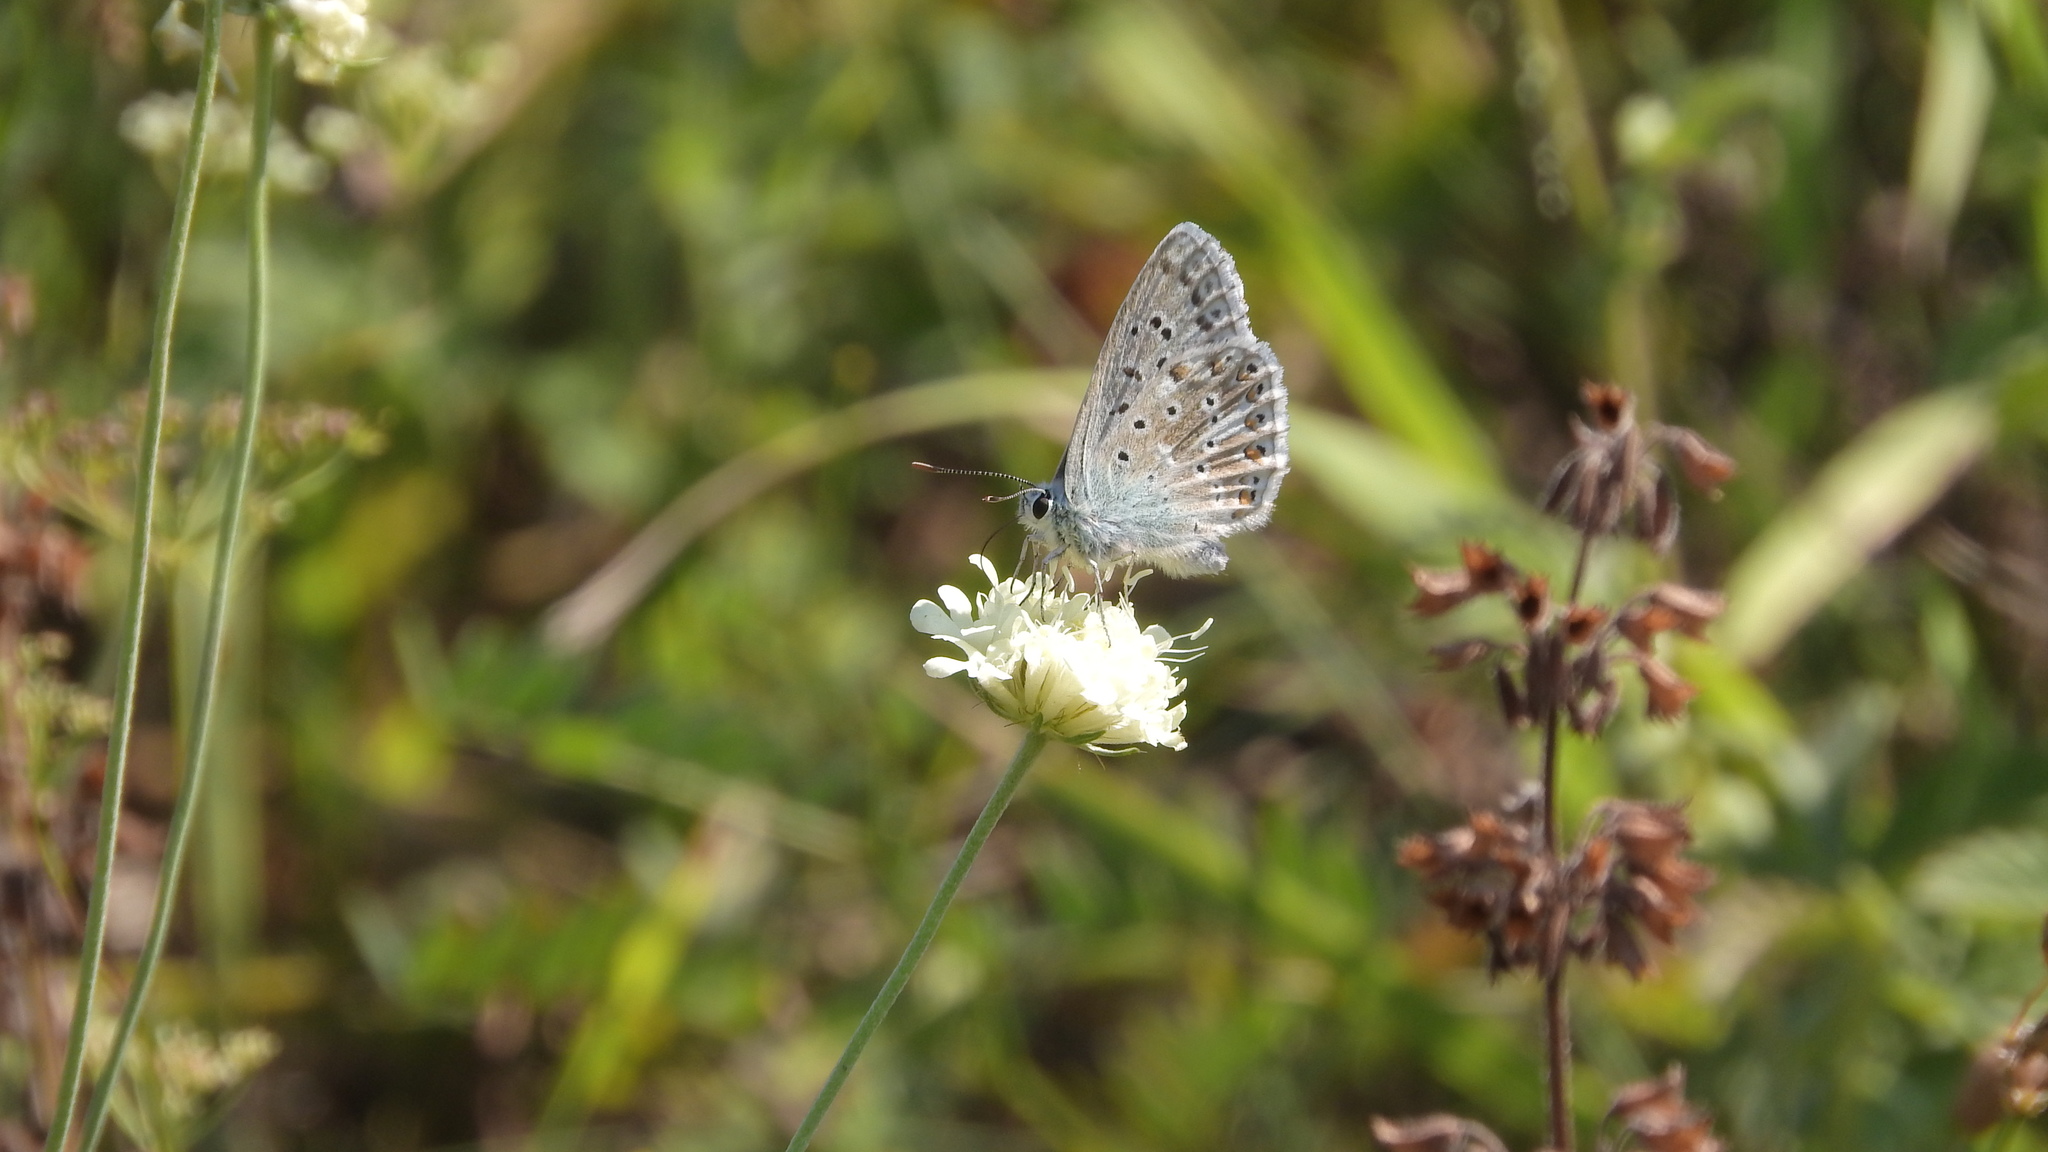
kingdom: Animalia
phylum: Arthropoda
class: Insecta
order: Lepidoptera
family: Lycaenidae
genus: Lysandra
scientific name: Lysandra coridon
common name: Chalkhill blue
